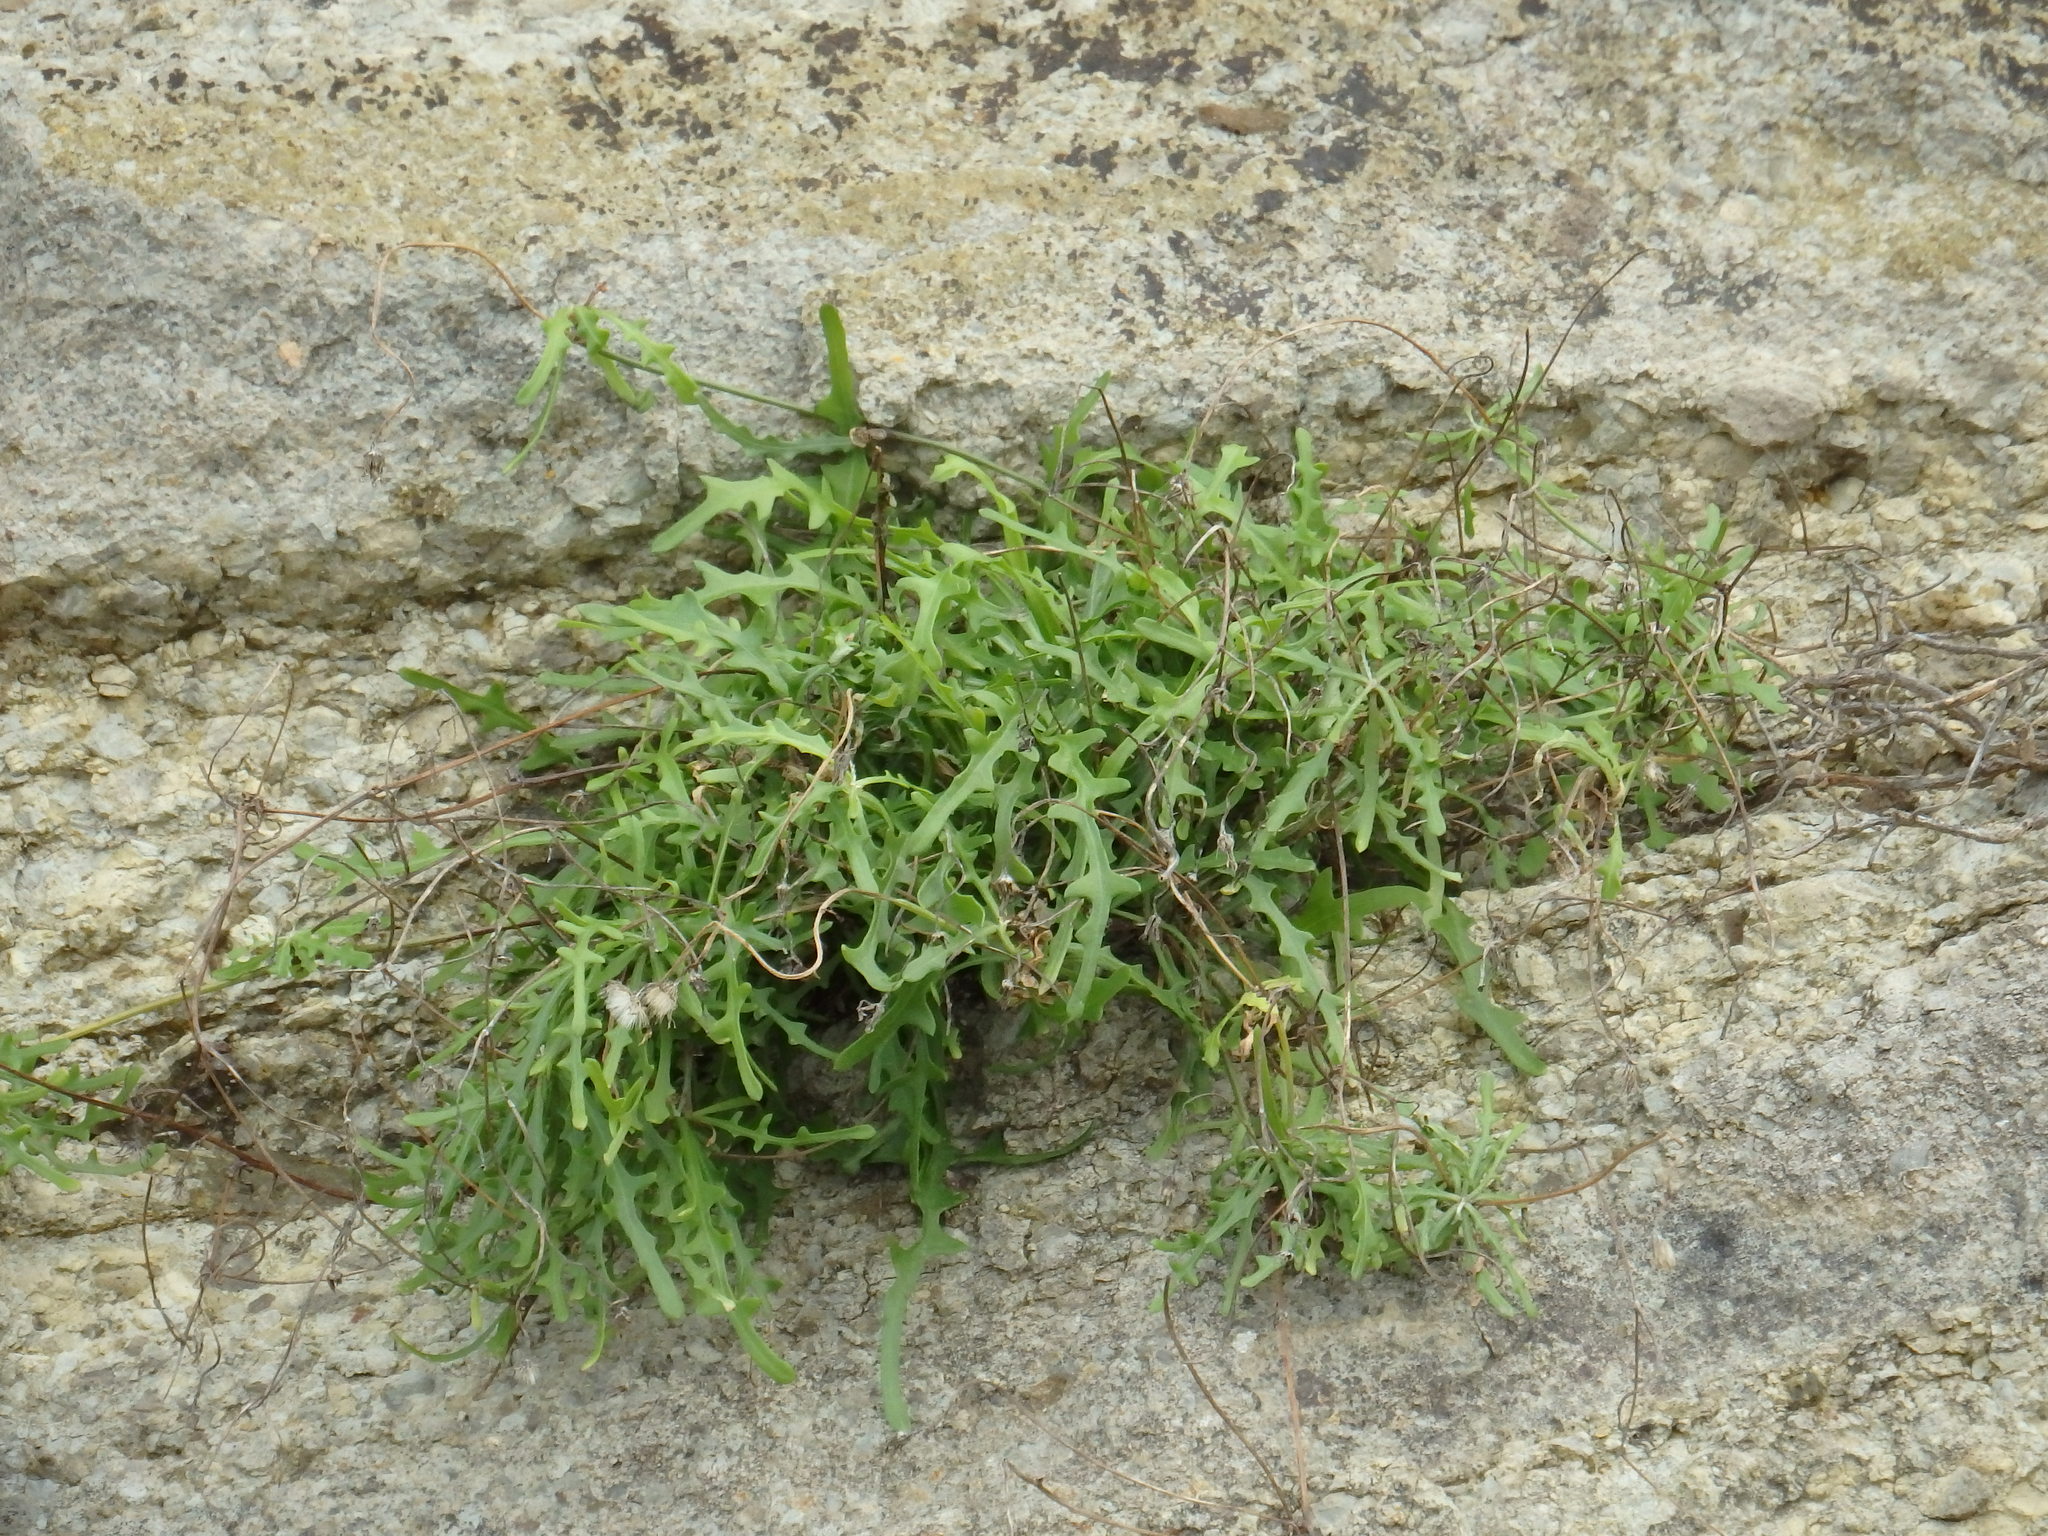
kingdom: Plantae
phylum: Tracheophyta
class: Magnoliopsida
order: Asterales
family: Asteraceae
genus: Tolpis
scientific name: Tolpis succulenta
